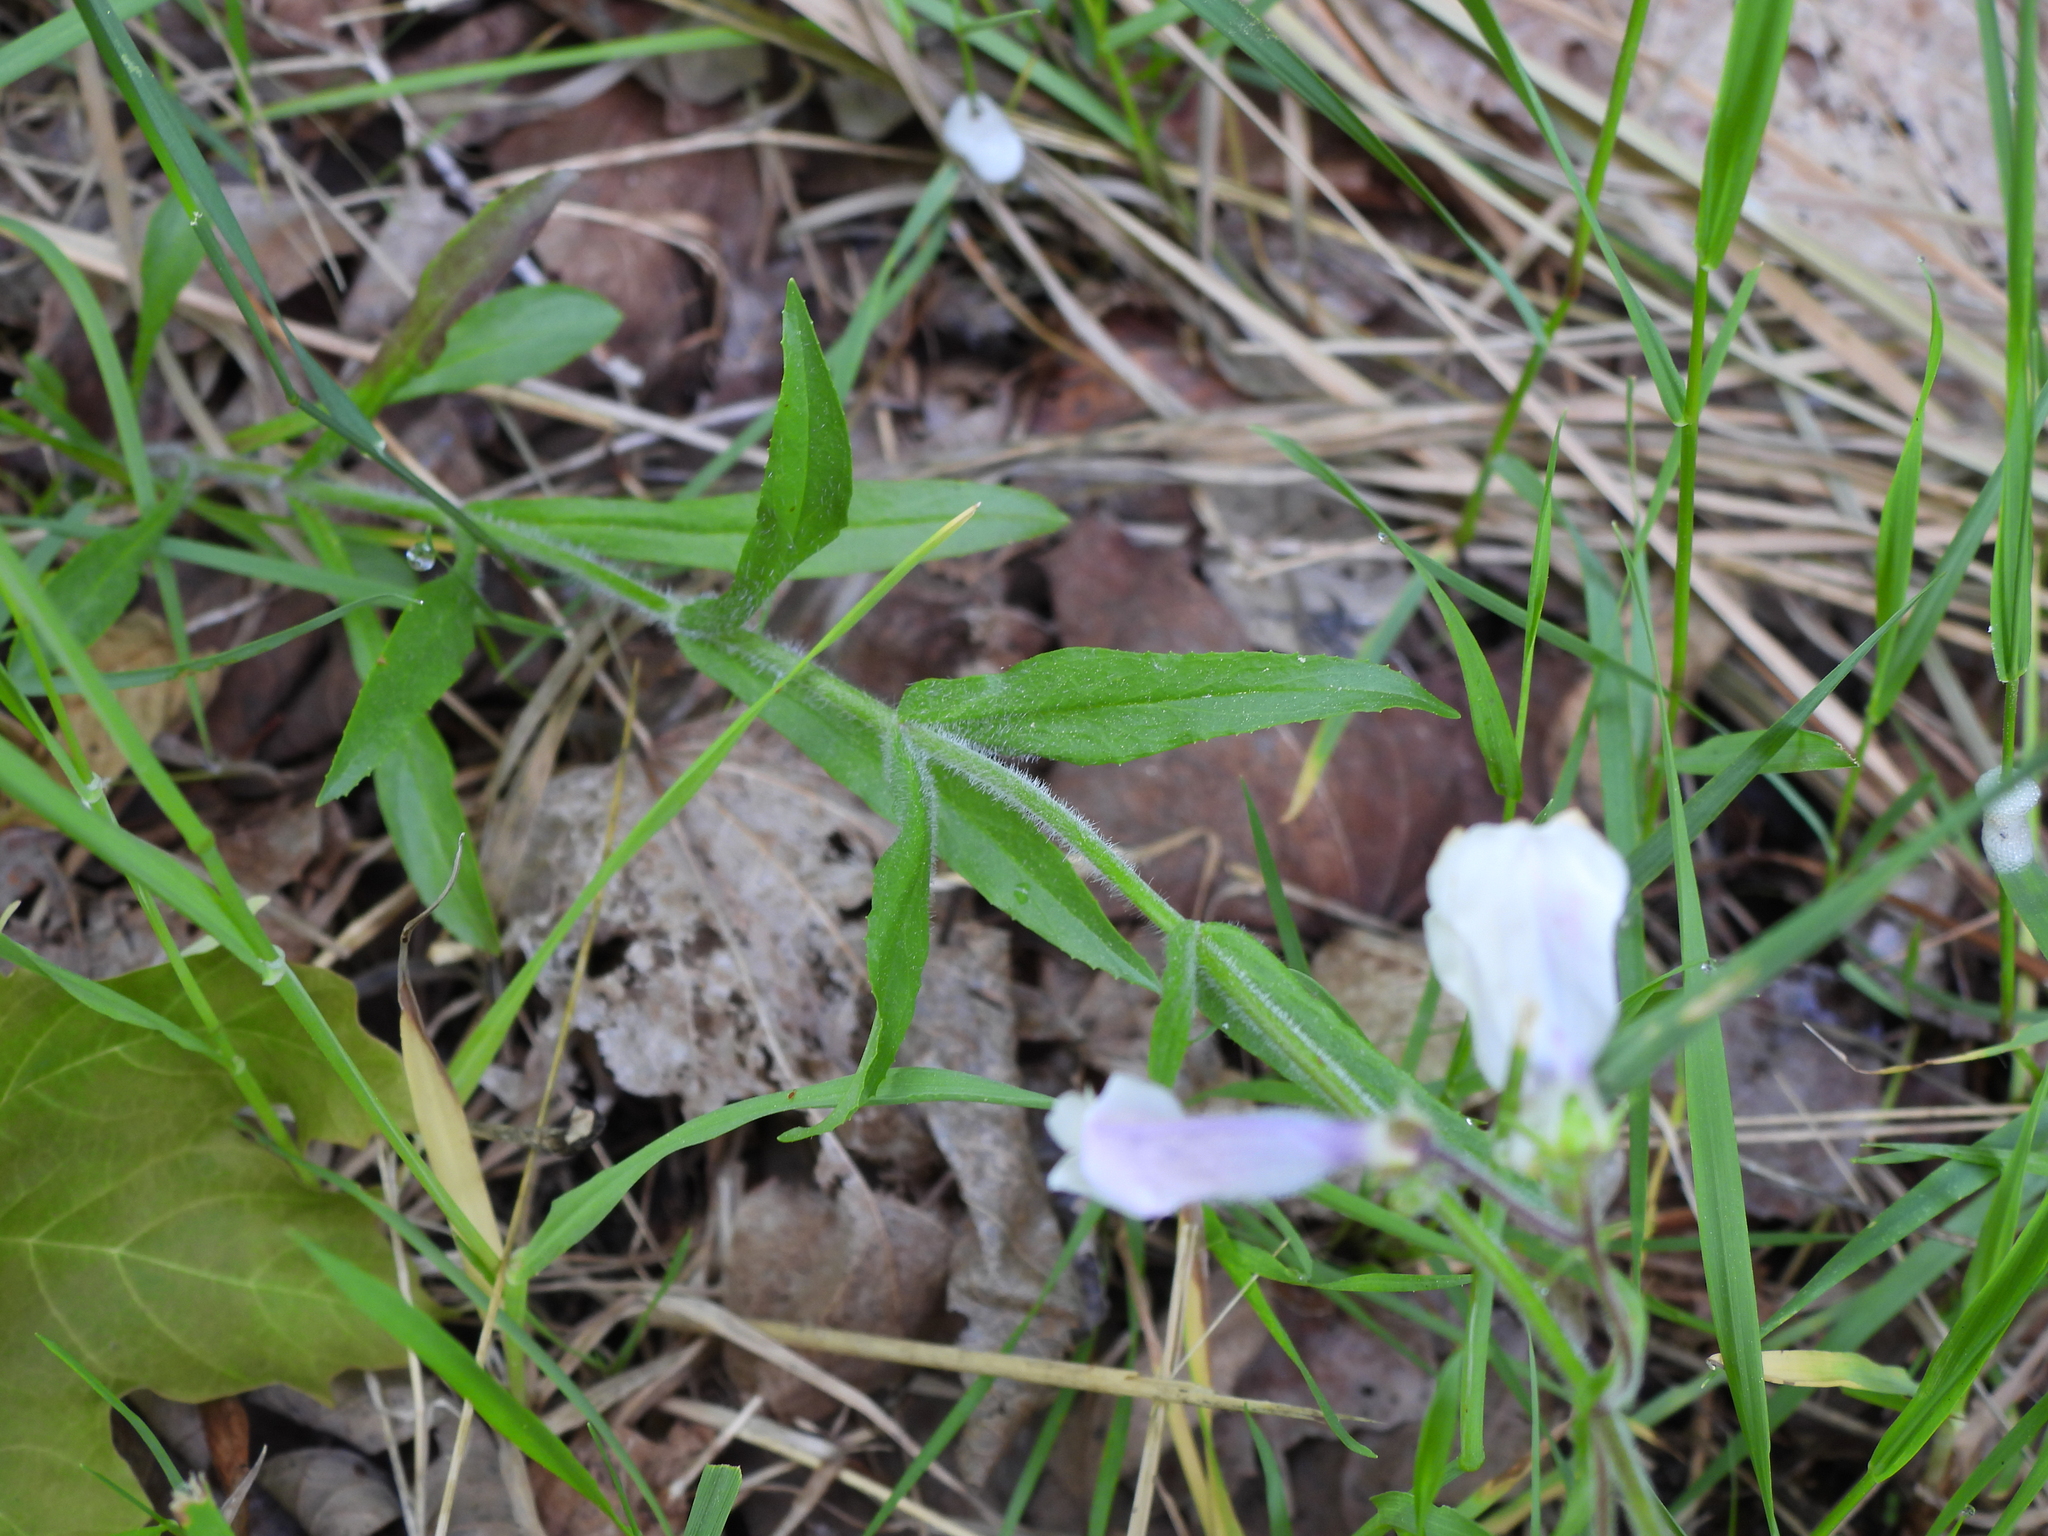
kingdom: Plantae
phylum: Tracheophyta
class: Magnoliopsida
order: Lamiales
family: Plantaginaceae
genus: Penstemon
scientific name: Penstemon hirsutus
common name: Hairy beardtongue
